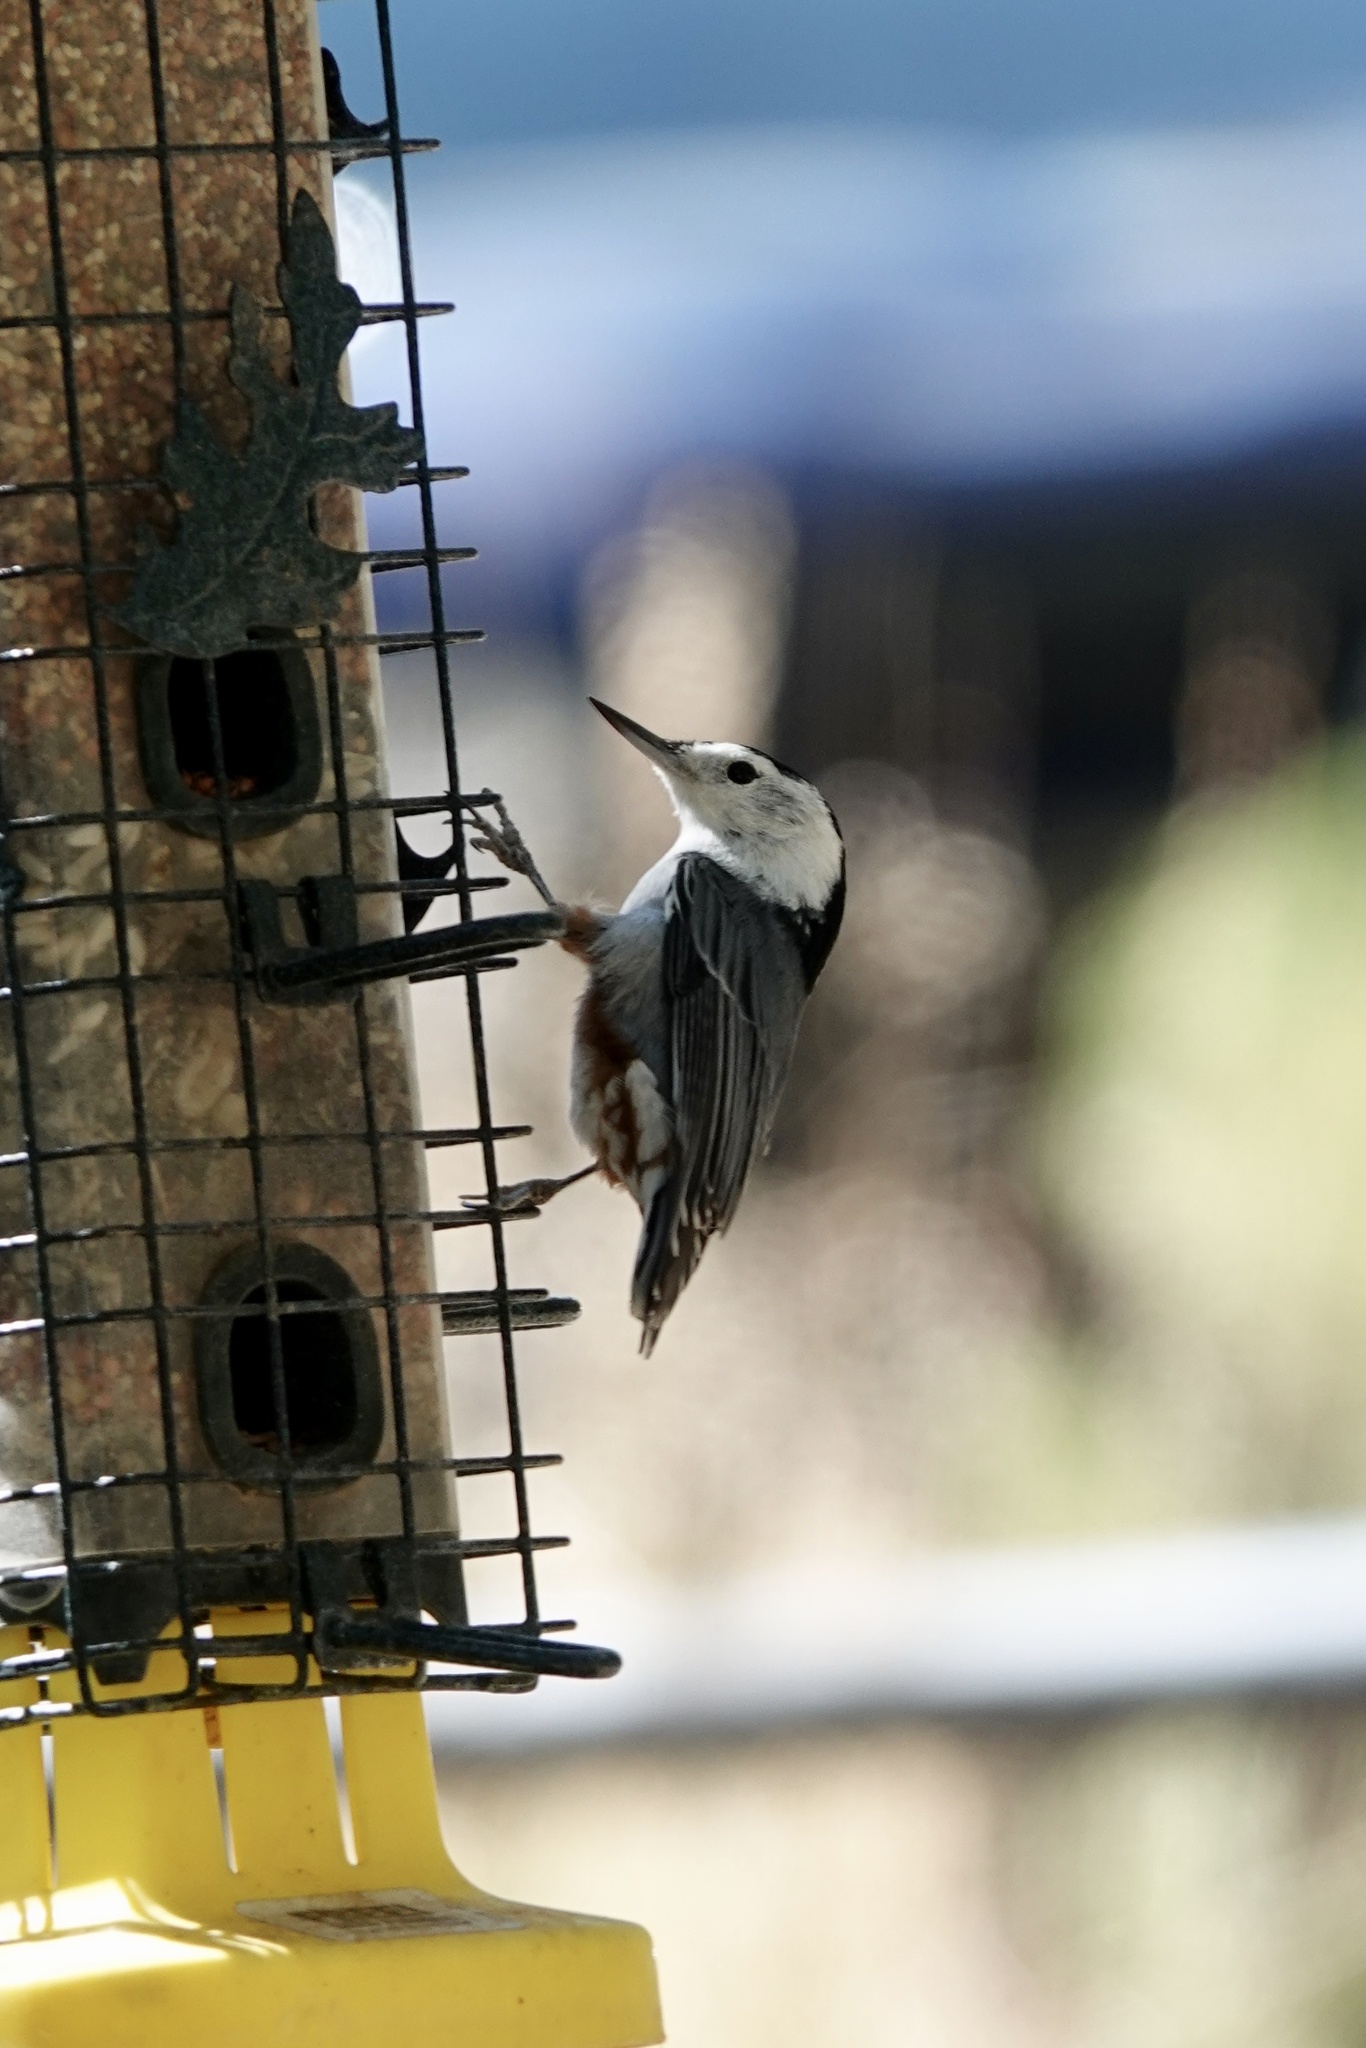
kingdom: Animalia
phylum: Chordata
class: Aves
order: Passeriformes
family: Sittidae
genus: Sitta
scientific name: Sitta carolinensis
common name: White-breasted nuthatch
